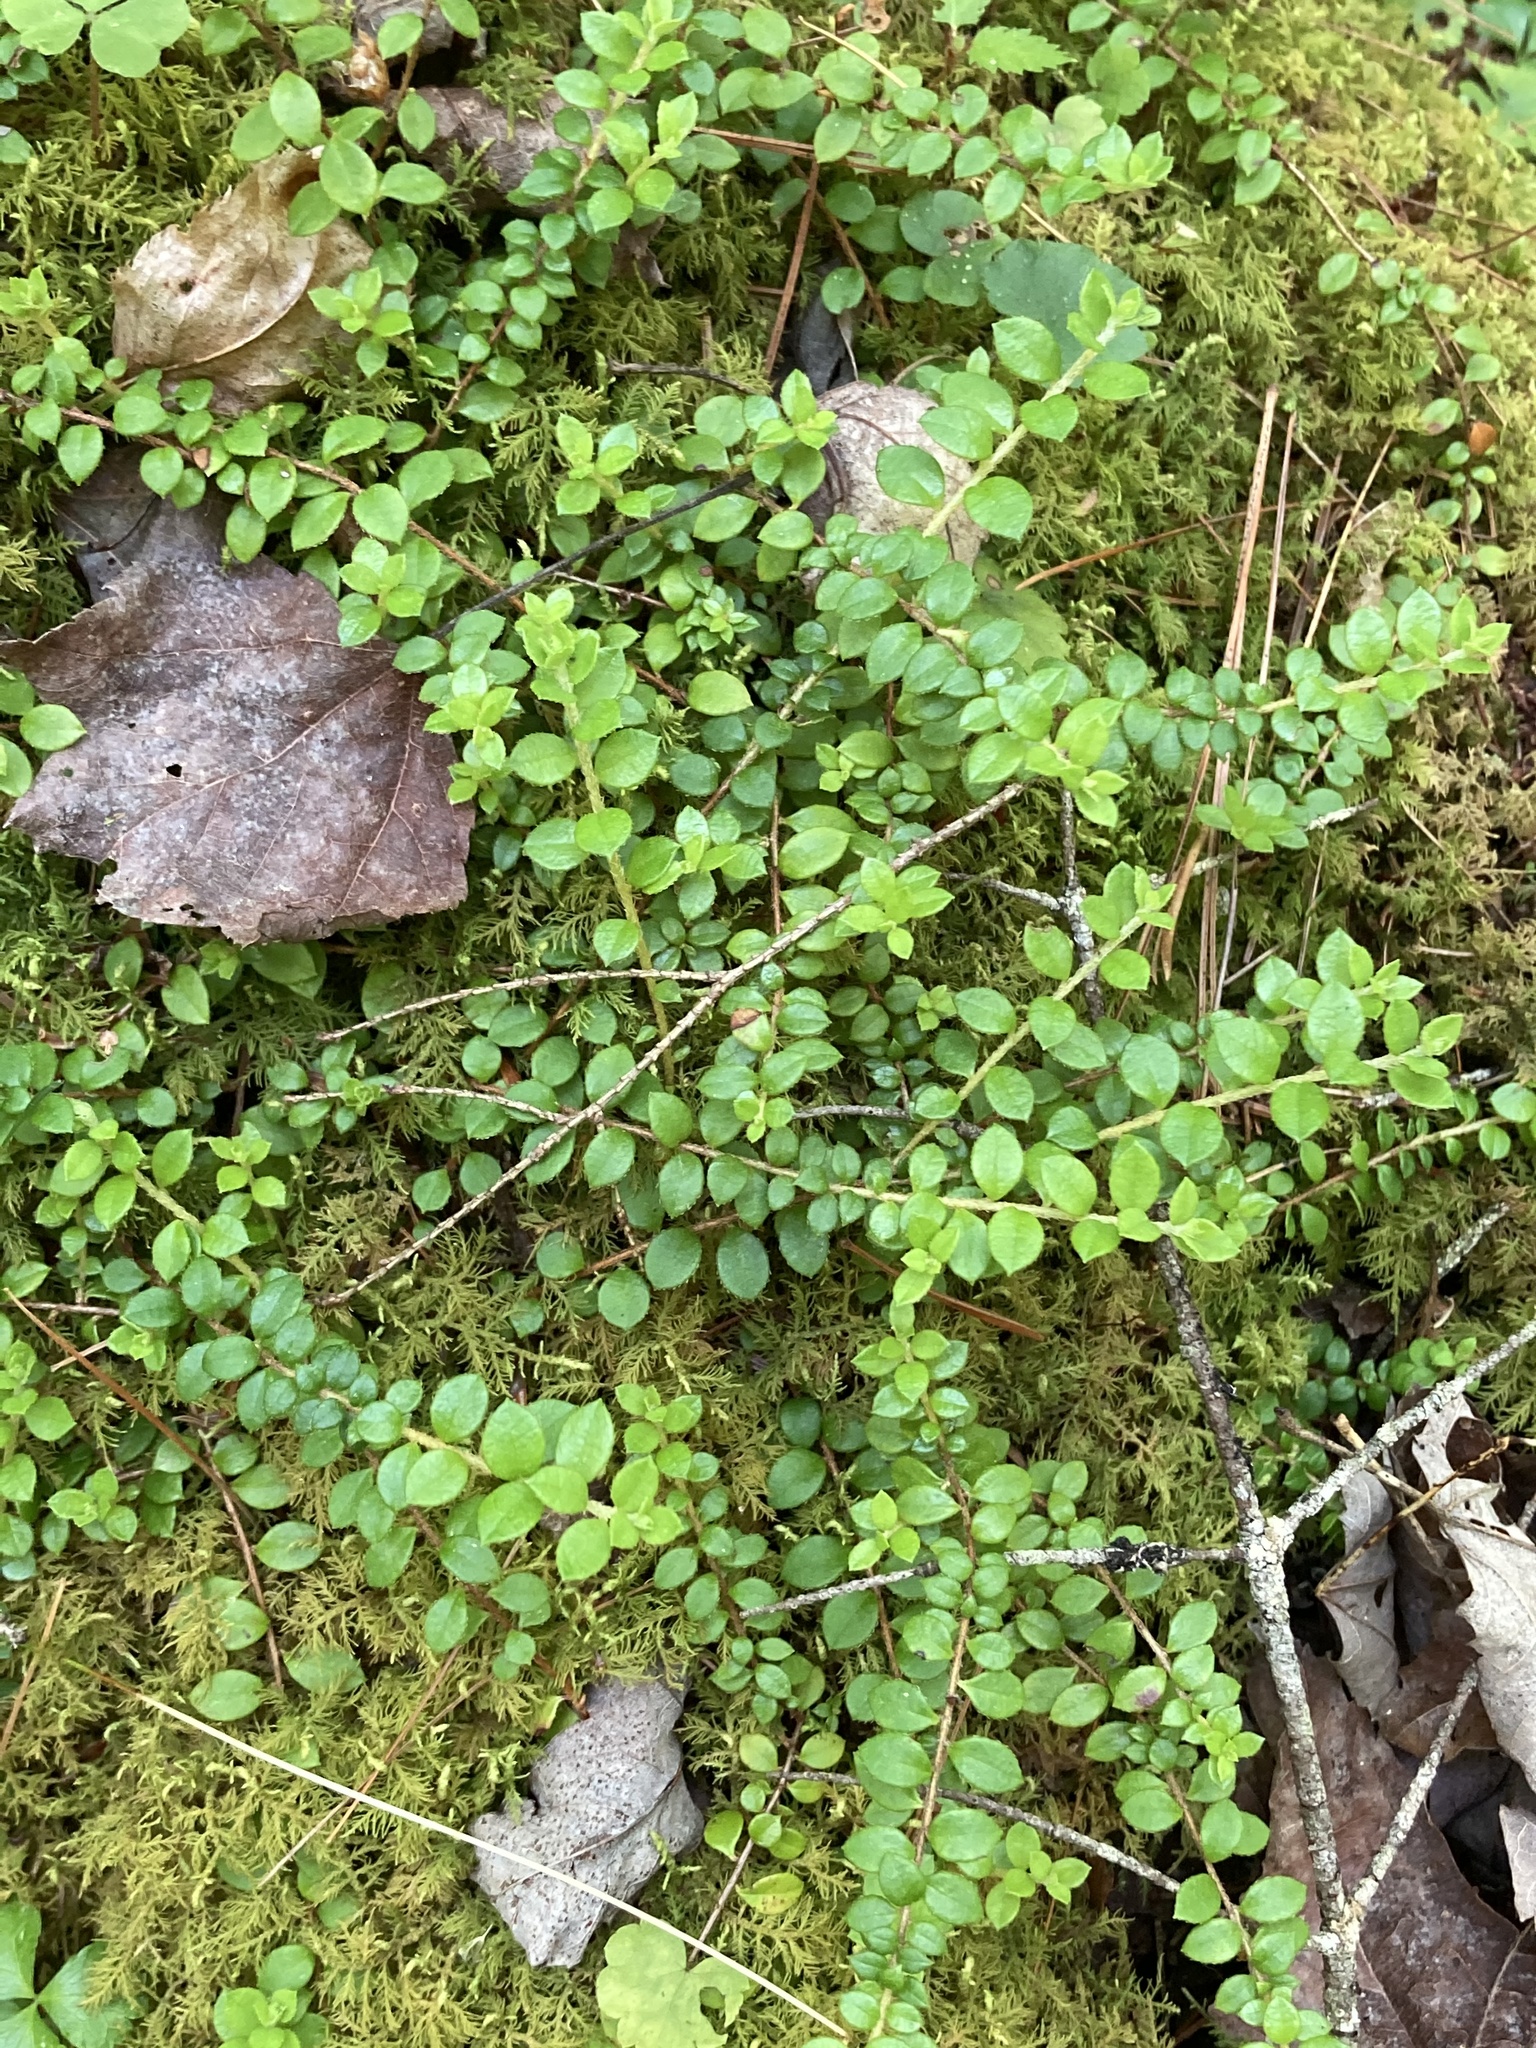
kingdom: Plantae
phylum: Tracheophyta
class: Magnoliopsida
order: Ericales
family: Ericaceae
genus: Gaultheria
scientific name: Gaultheria hispidula
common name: Cancer wintergreen
